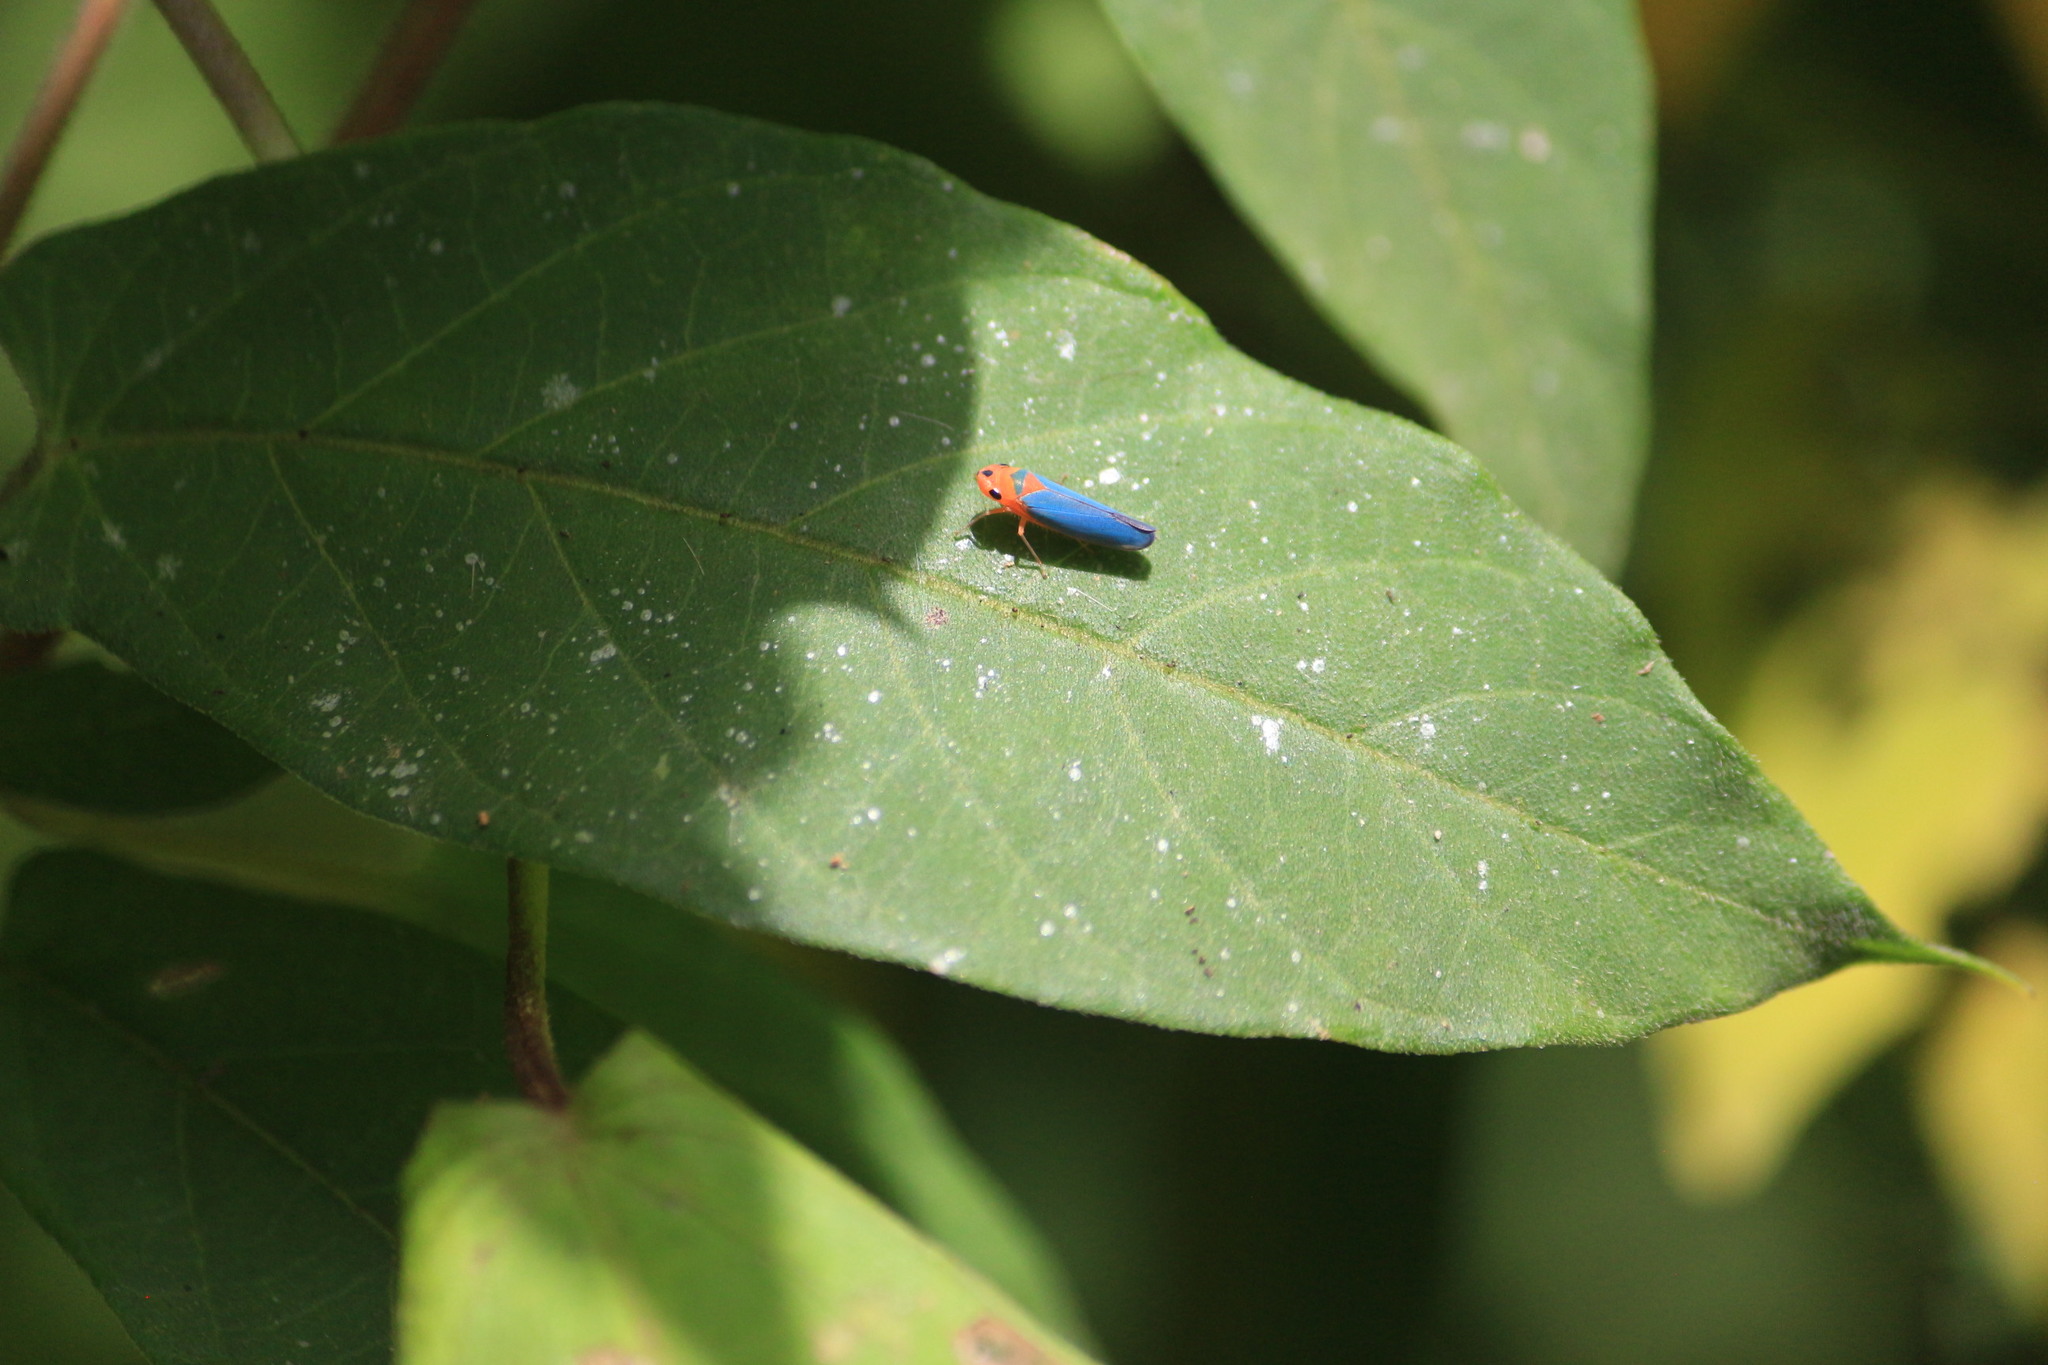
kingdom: Animalia
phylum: Arthropoda
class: Insecta
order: Hemiptera
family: Cicadellidae
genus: Macunolla
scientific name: Macunolla ventralis
